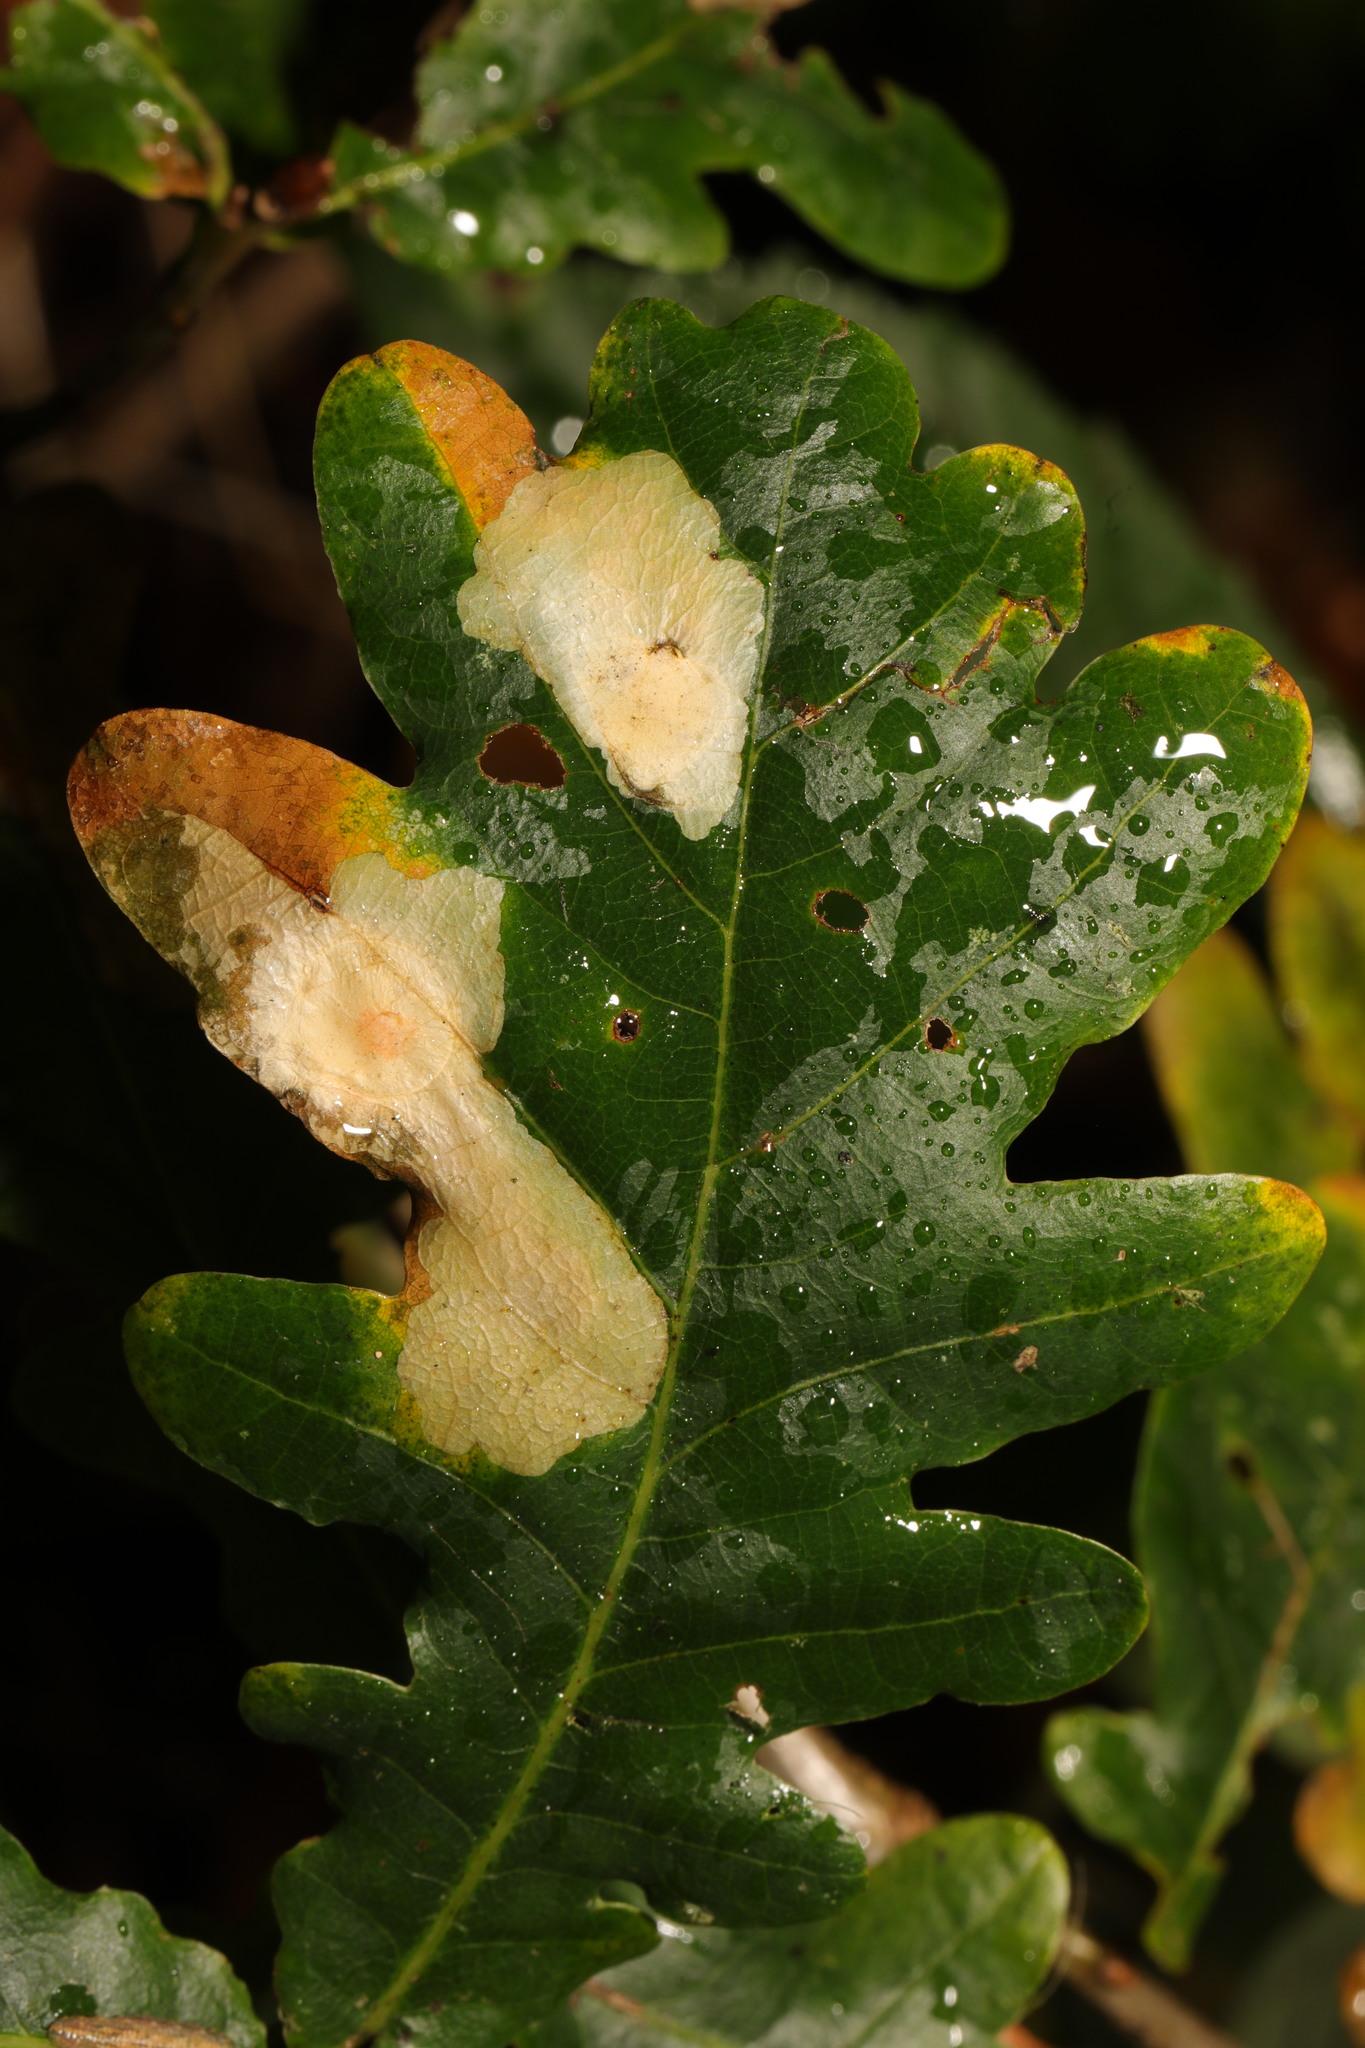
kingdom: Animalia
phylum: Arthropoda
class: Insecta
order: Lepidoptera
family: Tischeriidae
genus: Tischeria
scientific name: Tischeria ekebladella
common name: Oak carl
